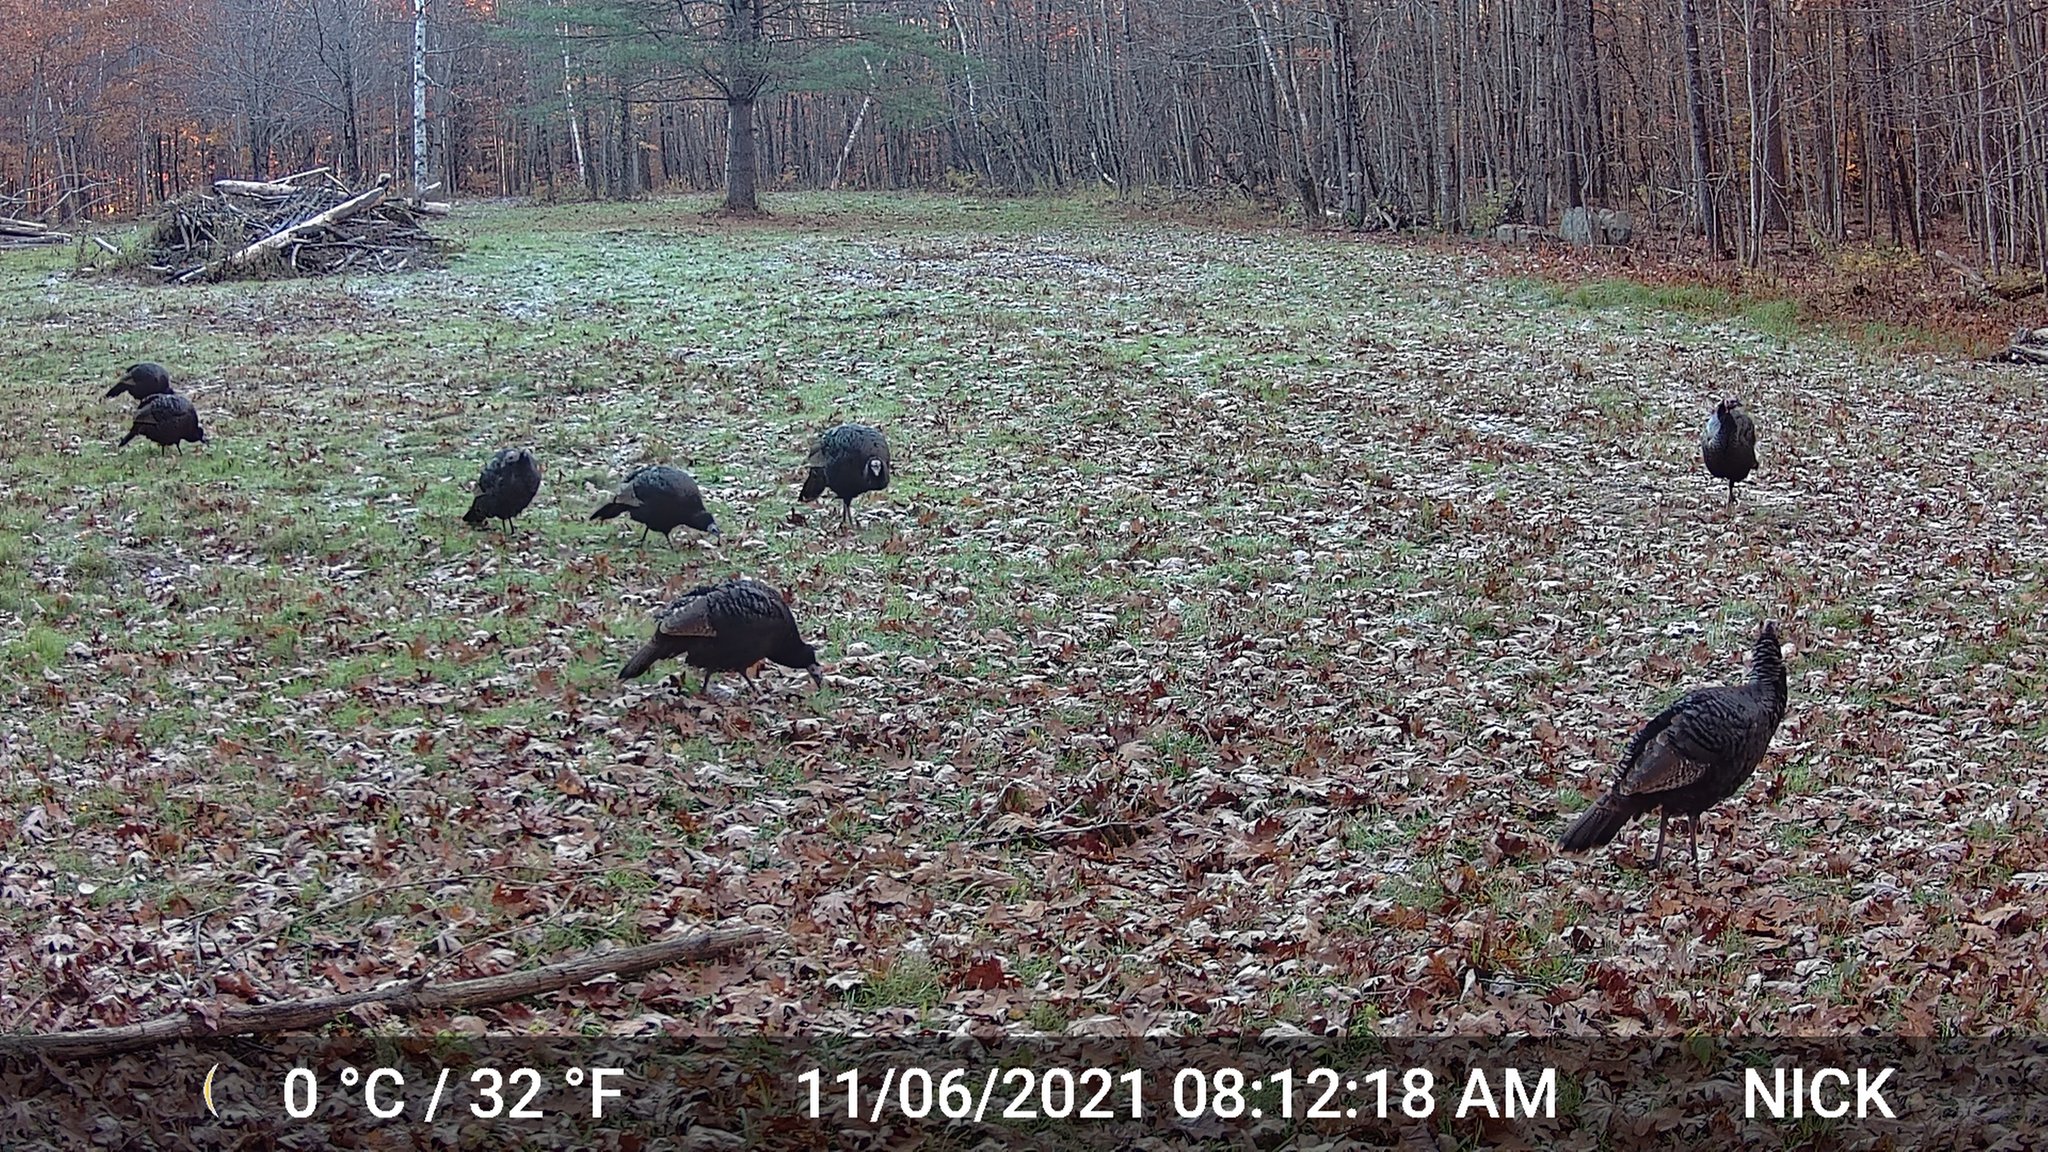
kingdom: Animalia
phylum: Chordata
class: Aves
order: Galliformes
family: Phasianidae
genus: Meleagris
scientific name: Meleagris gallopavo
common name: Wild turkey
